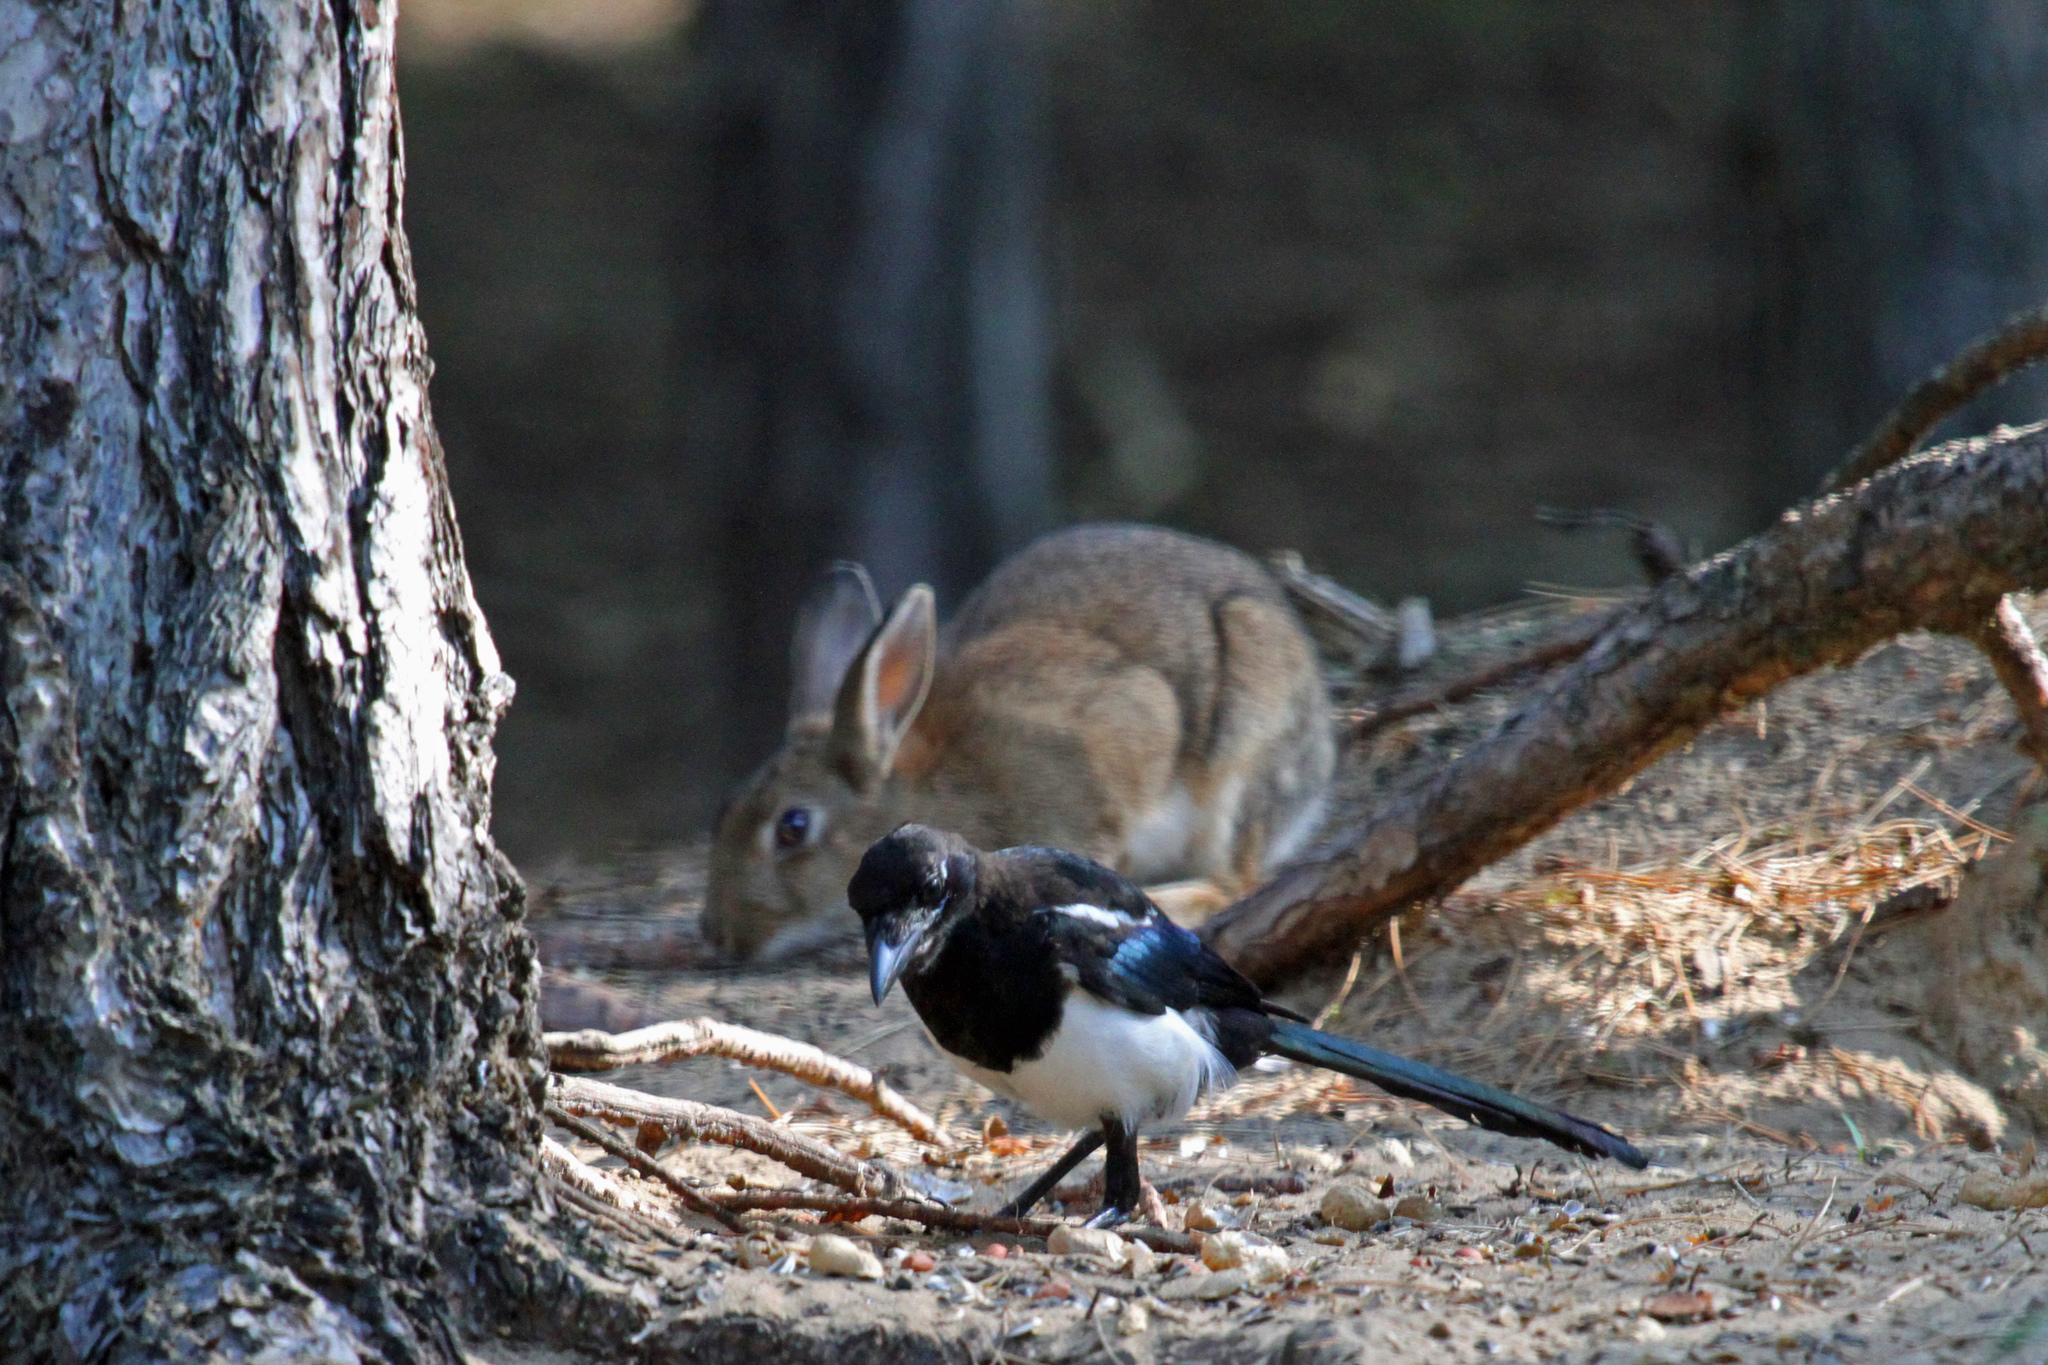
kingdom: Animalia
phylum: Chordata
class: Aves
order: Passeriformes
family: Corvidae
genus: Pica
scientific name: Pica pica
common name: Eurasian magpie
